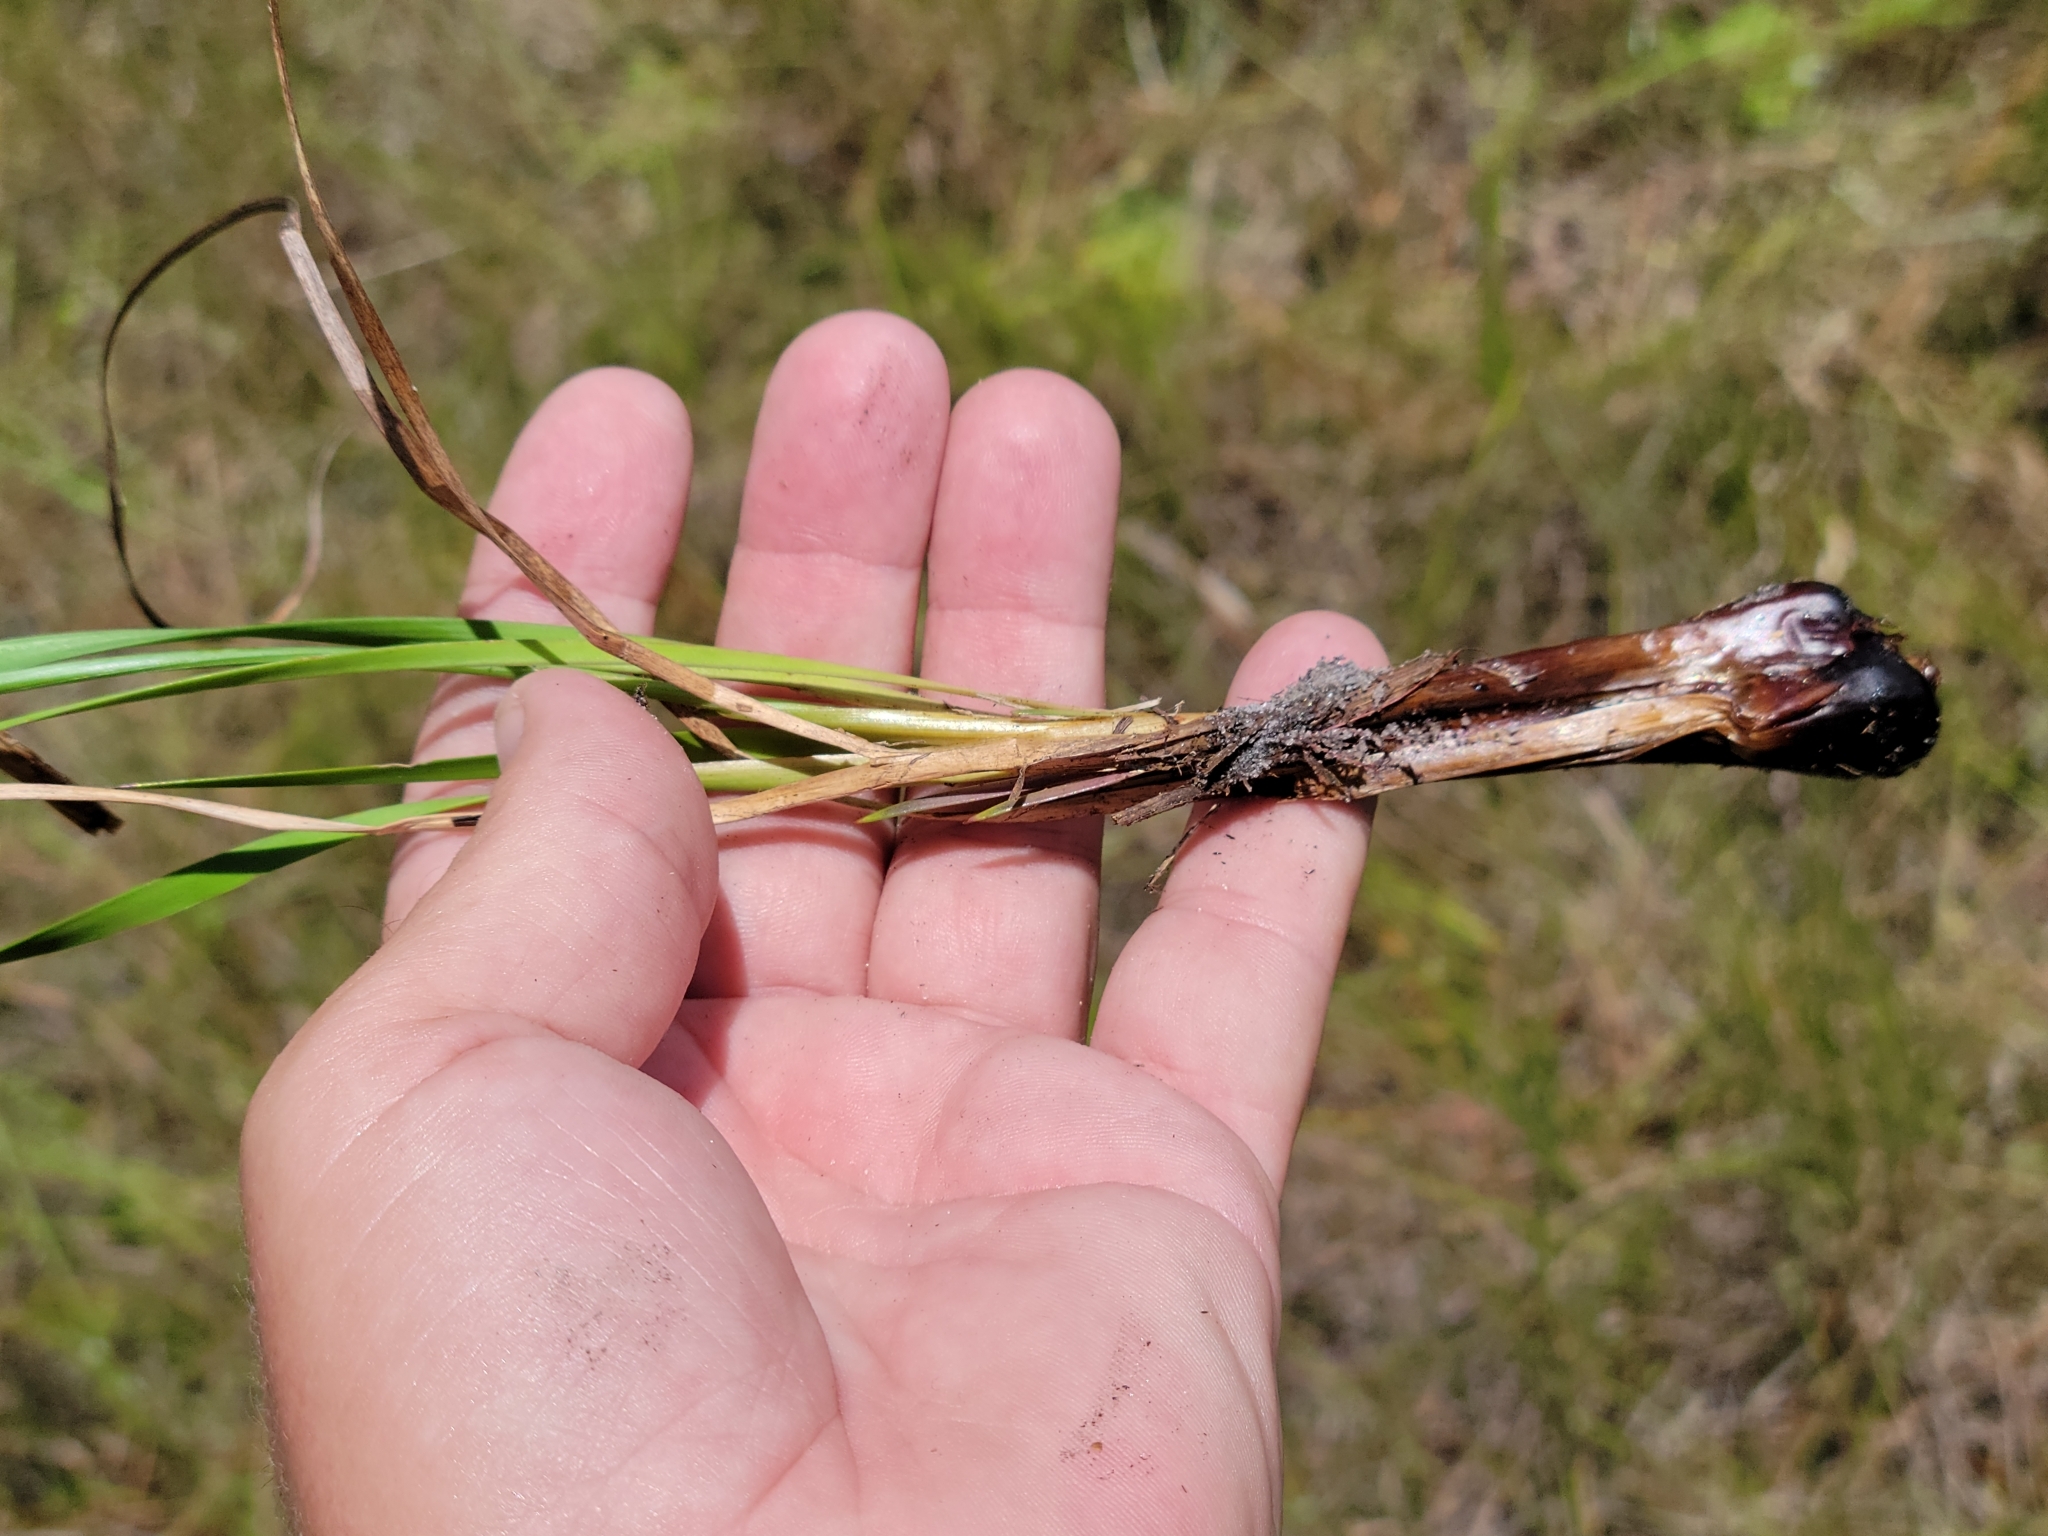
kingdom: Plantae
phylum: Tracheophyta
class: Liliopsida
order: Poales
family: Xyridaceae
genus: Xyris
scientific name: Xyris caroliniana
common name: Carolina yellow-eyed-grass
